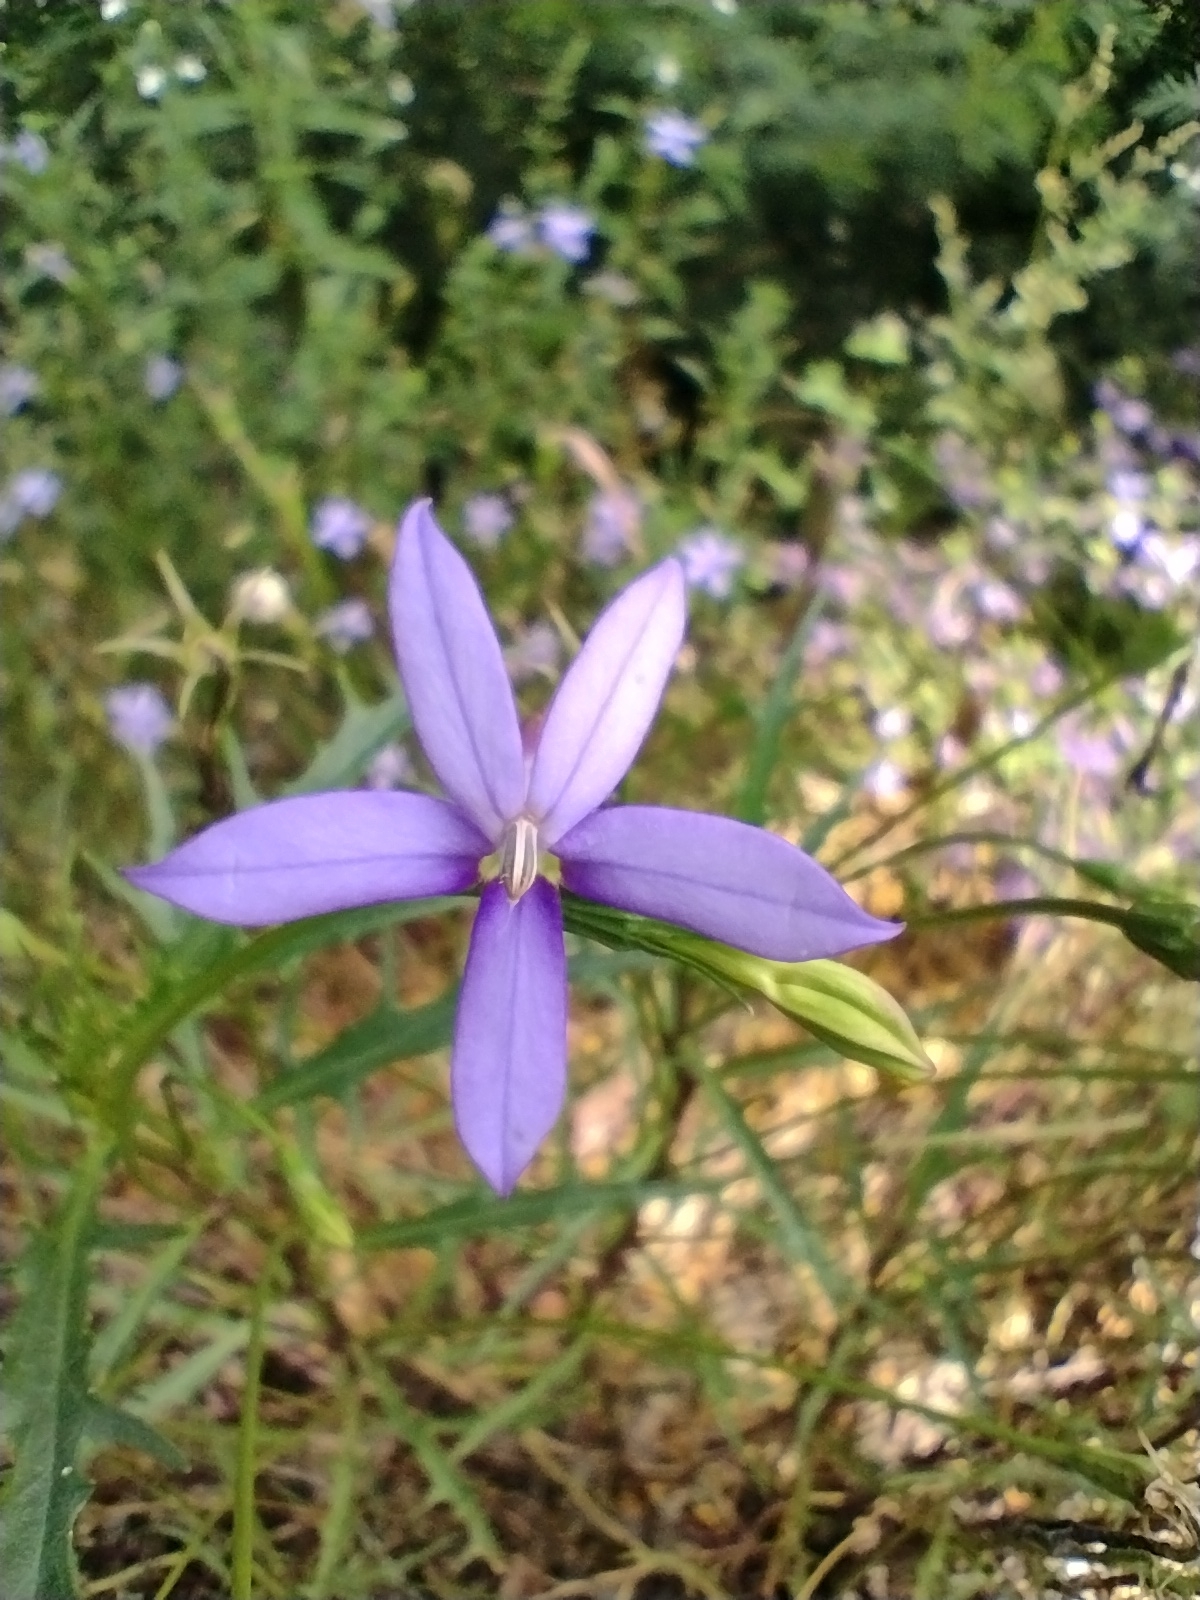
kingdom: Plantae
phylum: Tracheophyta
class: Magnoliopsida
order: Asterales
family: Campanulaceae
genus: Lithotoma
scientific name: Lithotoma axillaris
